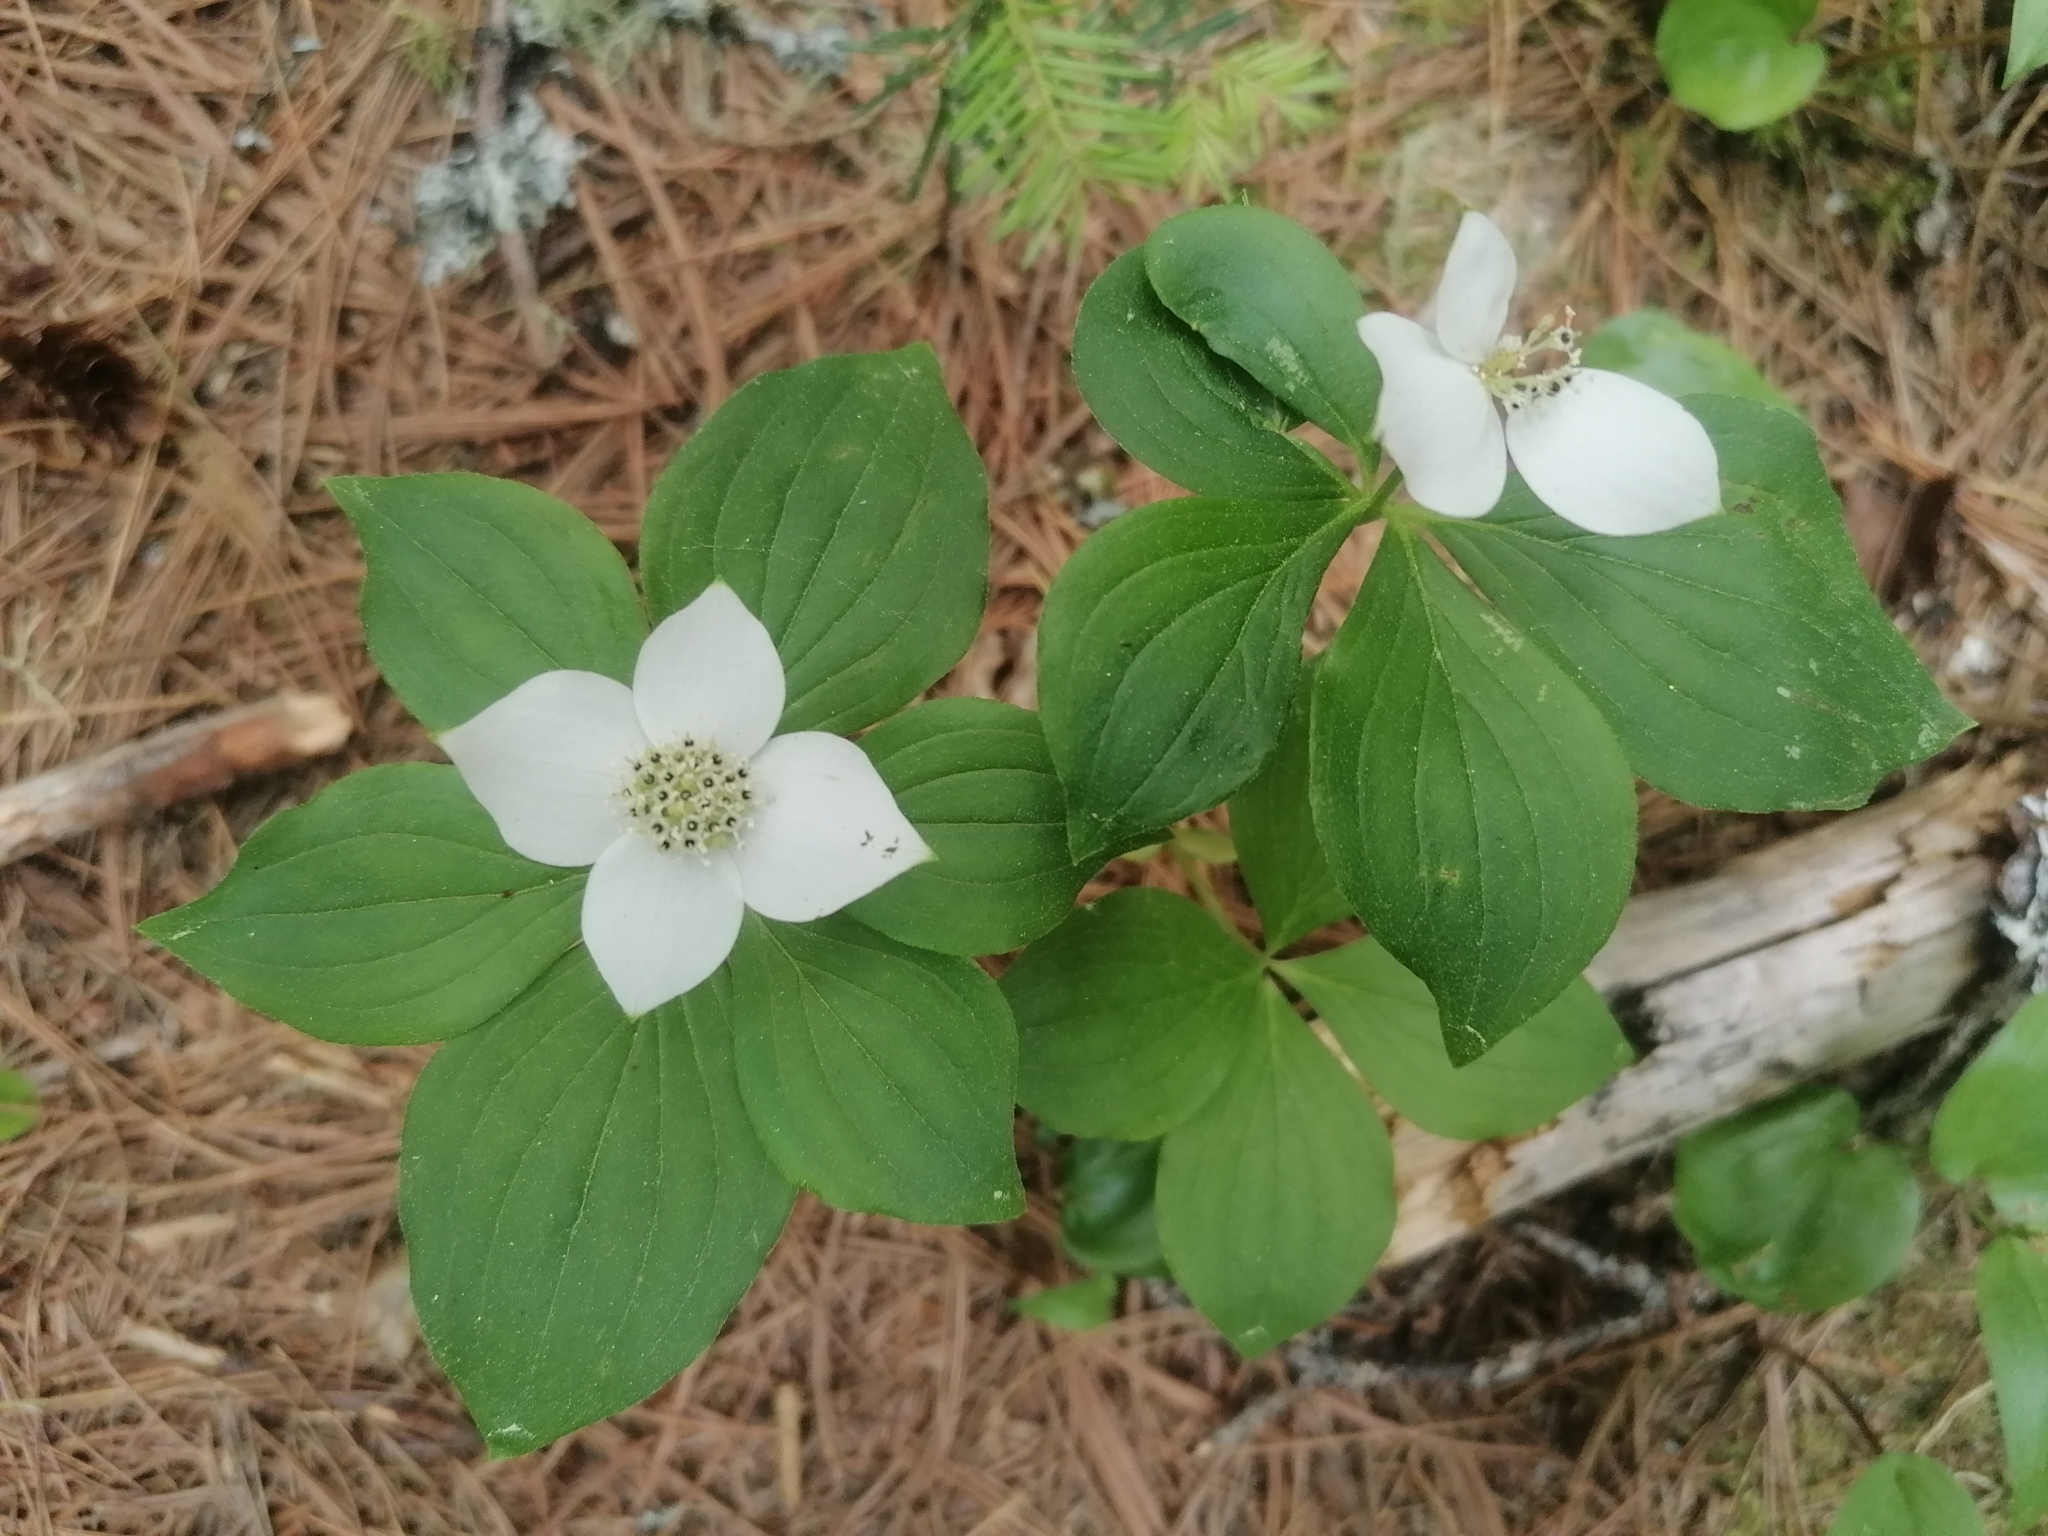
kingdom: Plantae
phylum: Tracheophyta
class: Magnoliopsida
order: Cornales
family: Cornaceae
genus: Cornus
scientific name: Cornus canadensis
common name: Creeping dogwood
